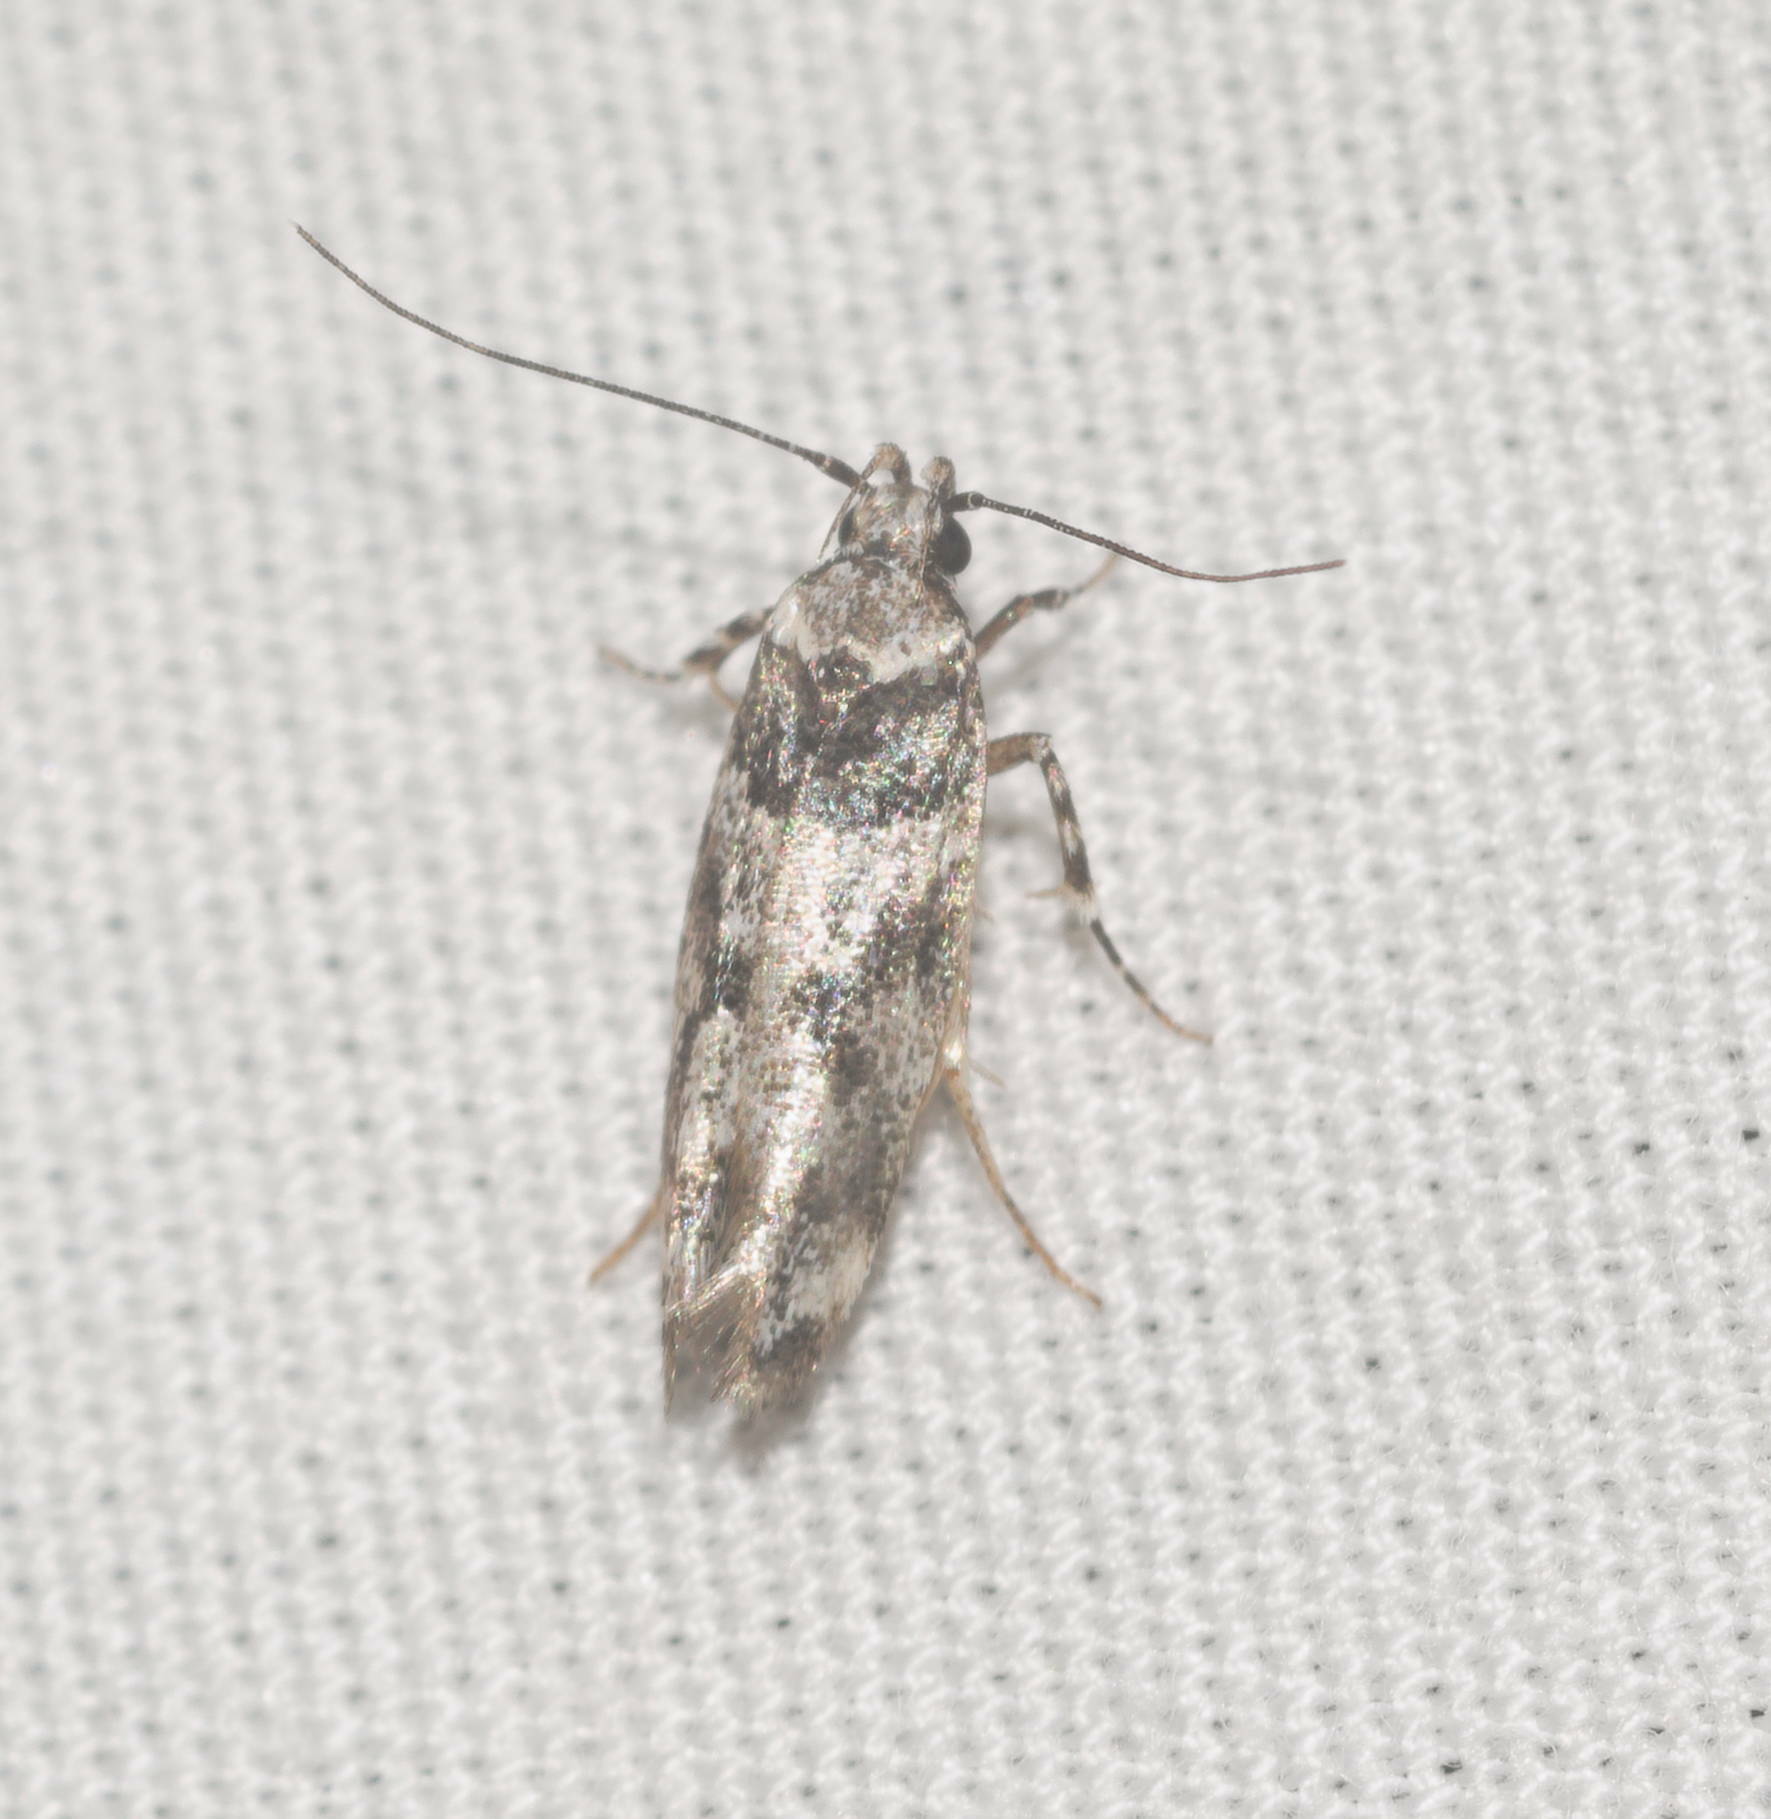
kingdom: Animalia
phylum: Arthropoda
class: Insecta
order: Lepidoptera
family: Cosmopterigidae
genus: Hyposmochoma
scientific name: Hyposmochoma empedota
